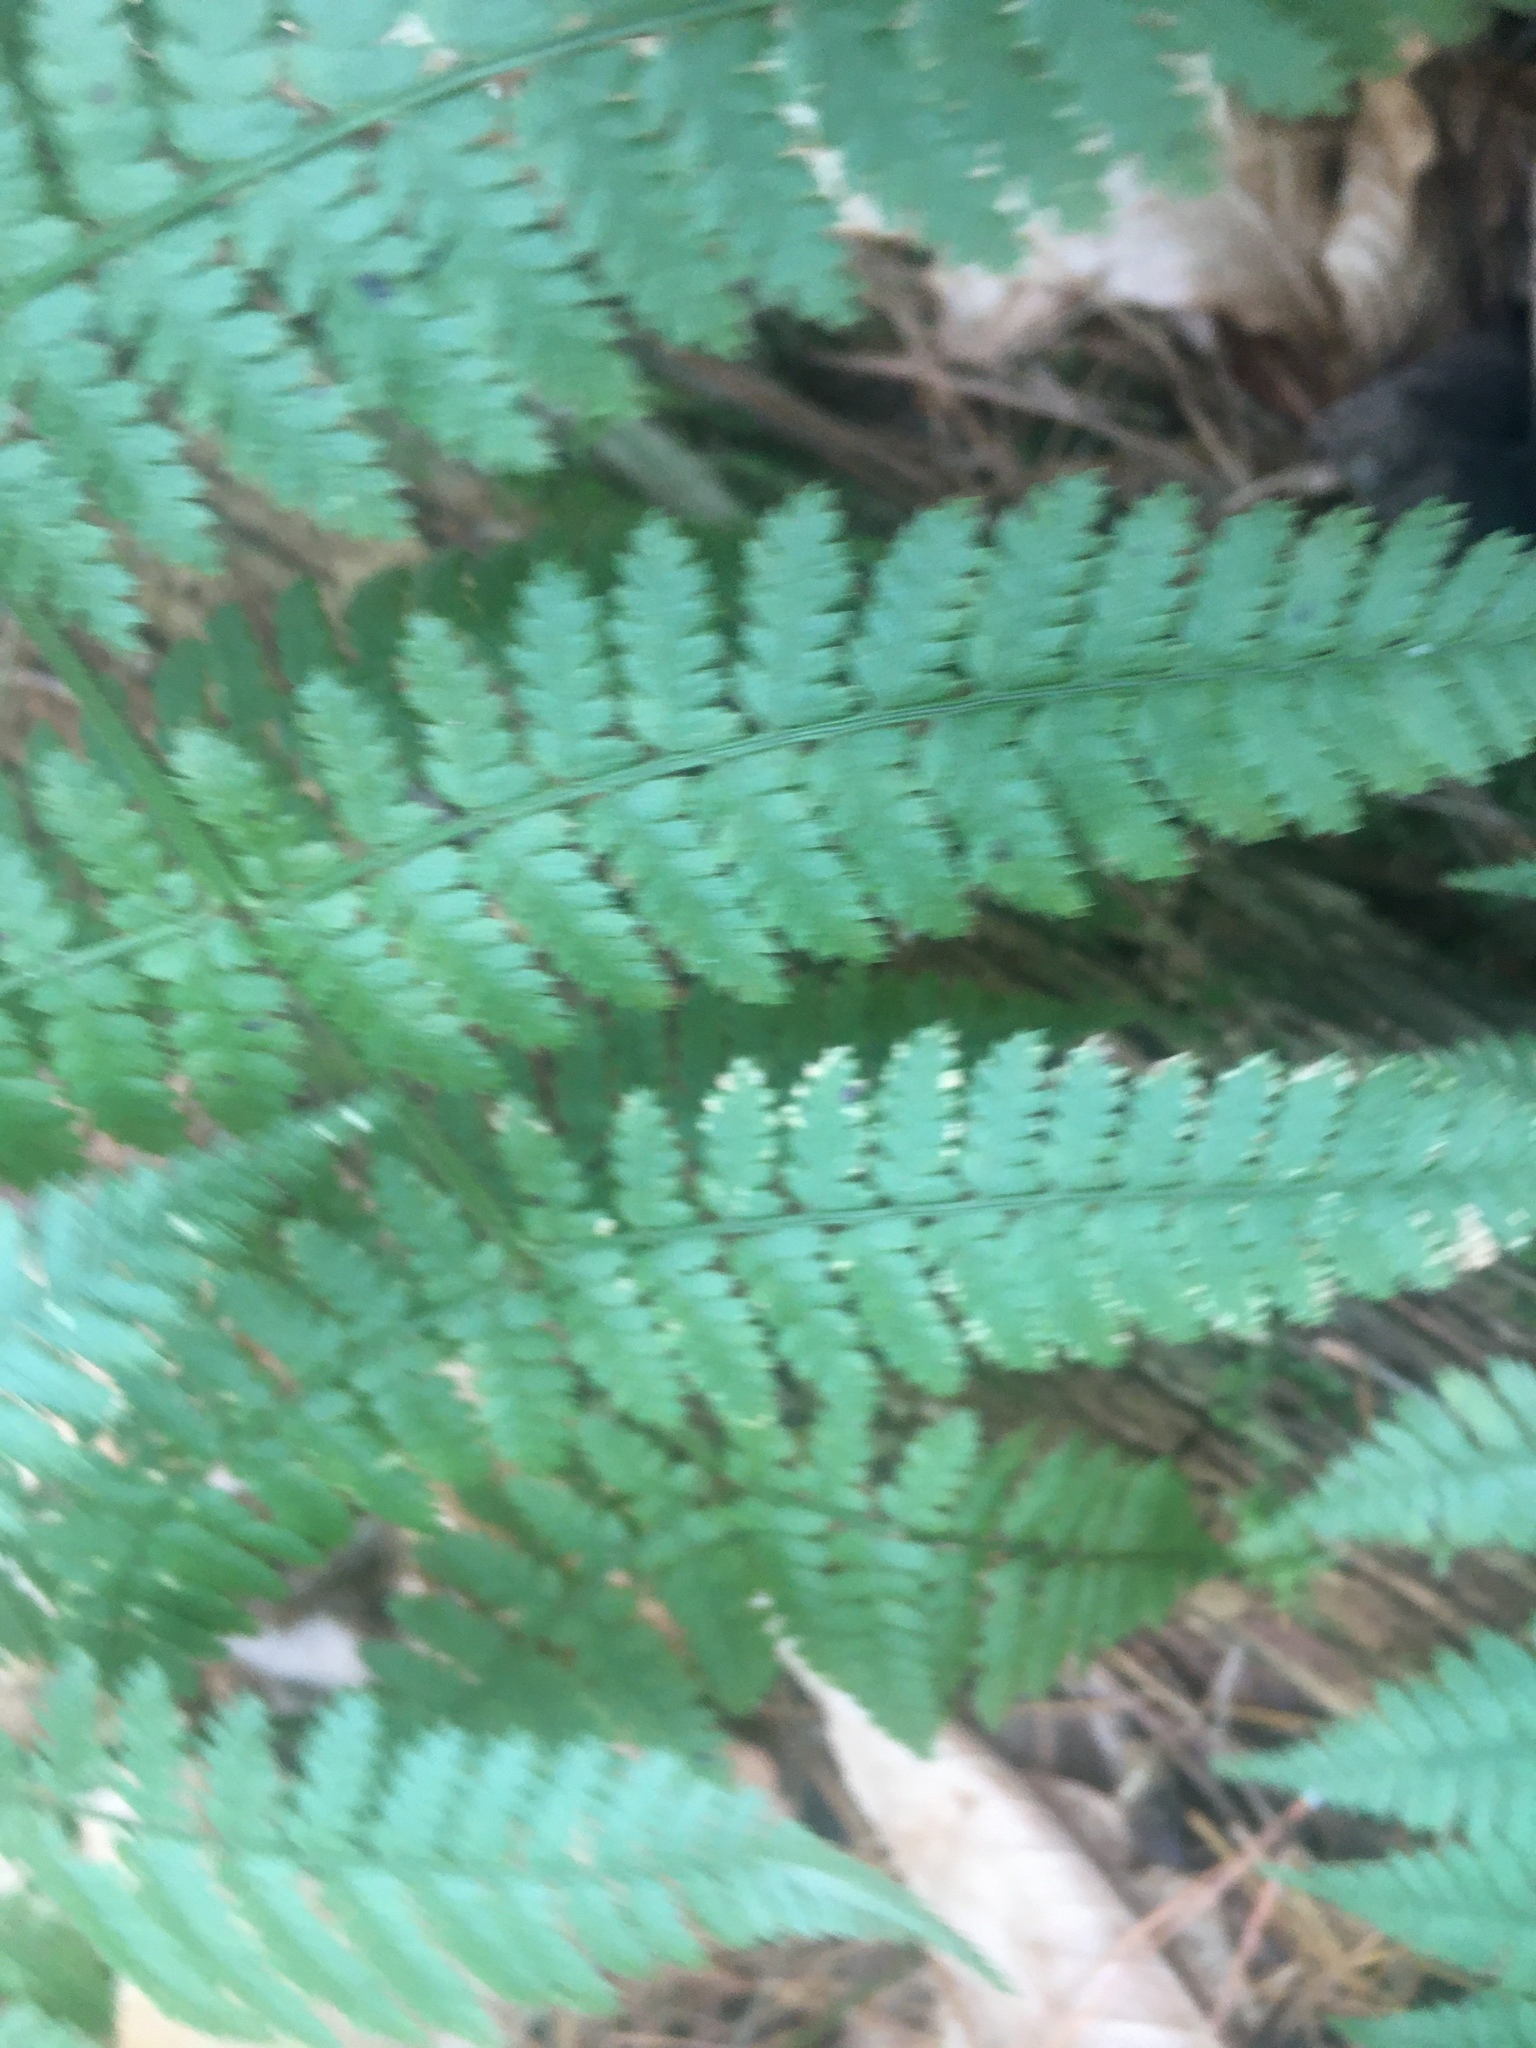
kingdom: Plantae
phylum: Tracheophyta
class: Polypodiopsida
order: Polypodiales
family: Dryopteridaceae
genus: Dryopteris
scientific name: Dryopteris intermedia
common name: Evergreen wood fern
